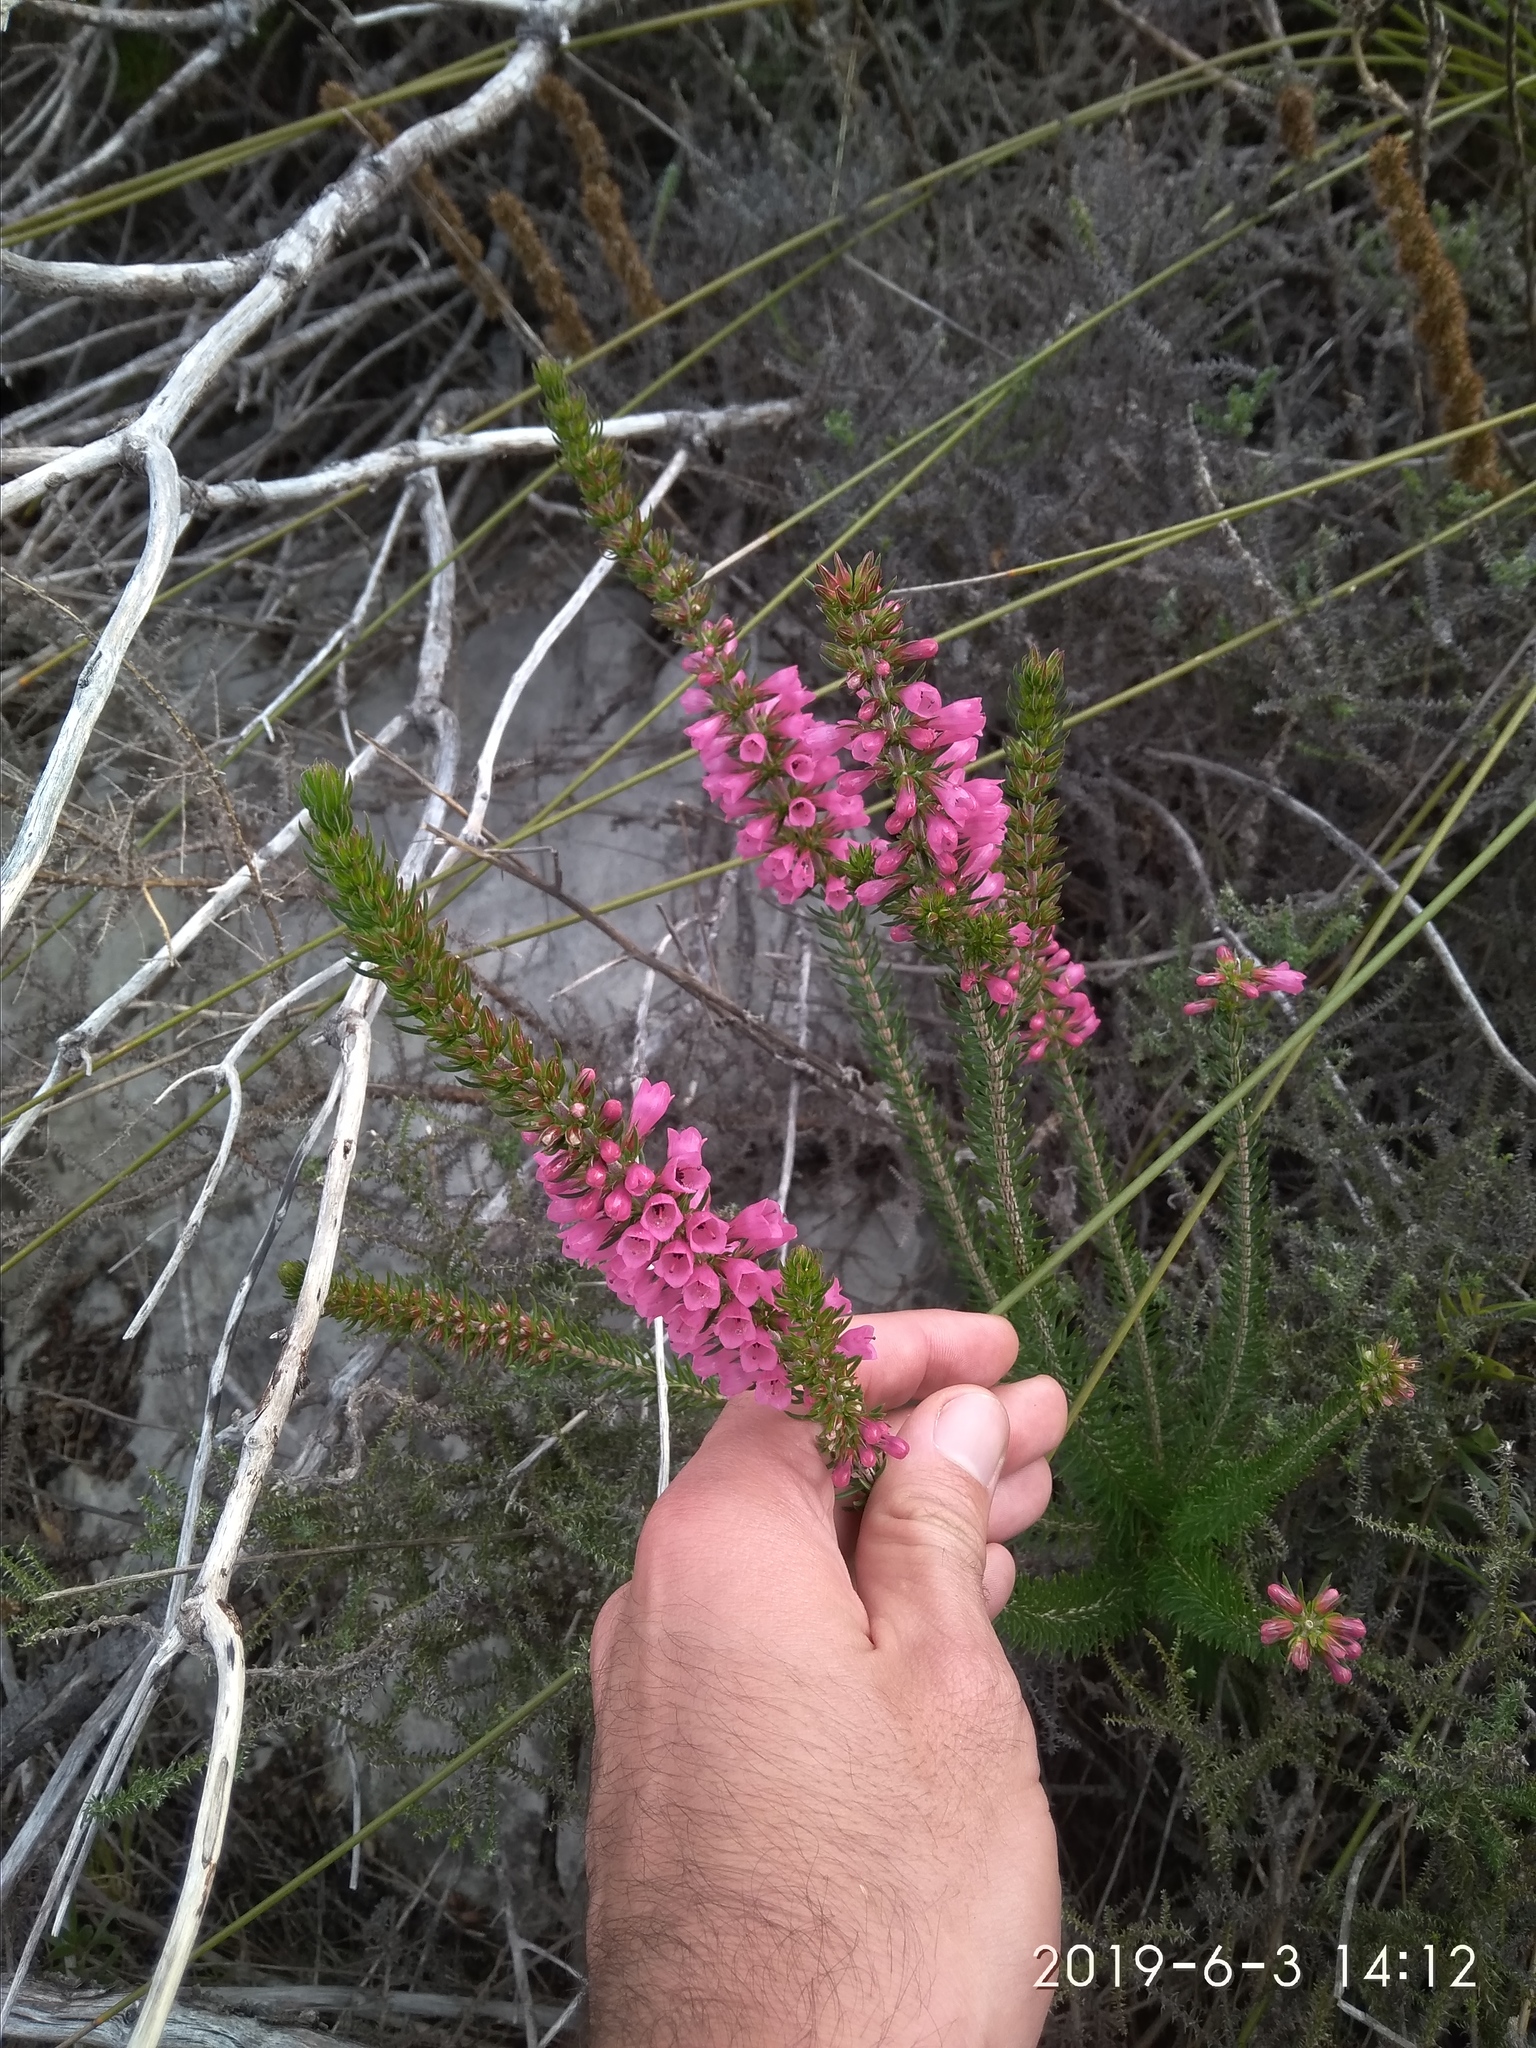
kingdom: Plantae
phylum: Tracheophyta
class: Magnoliopsida
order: Ericales
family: Ericaceae
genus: Erica
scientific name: Erica abietina
